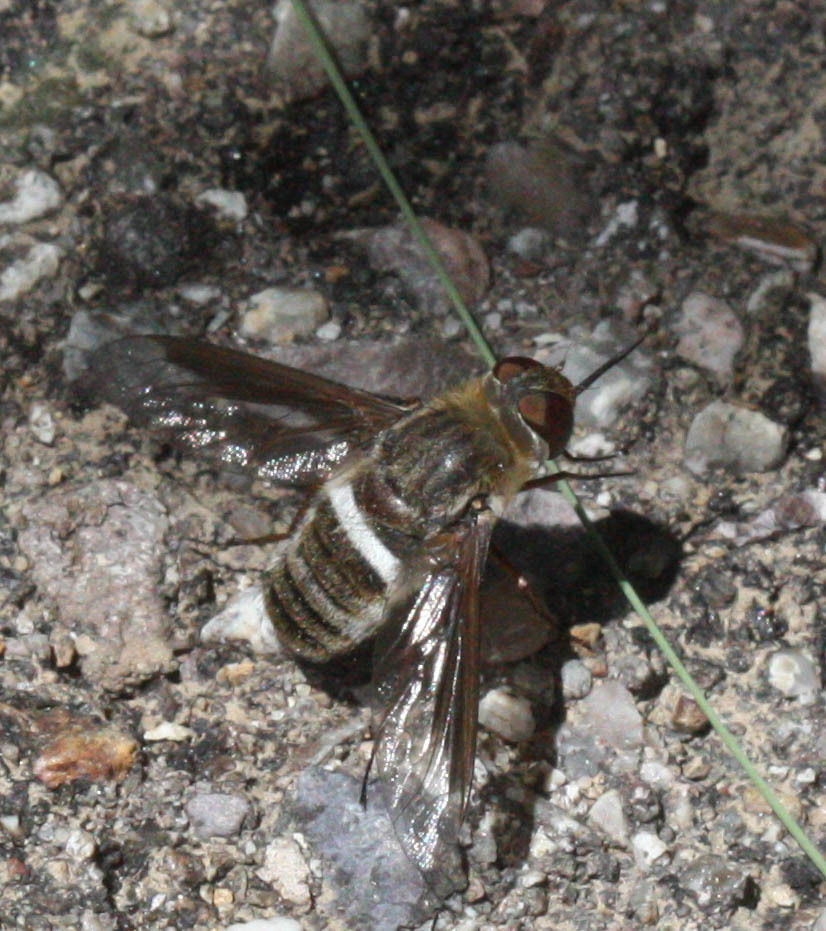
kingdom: Animalia
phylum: Arthropoda
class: Insecta
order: Diptera
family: Bombyliidae
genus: Exoprosopa
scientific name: Exoprosopa rostrifera
